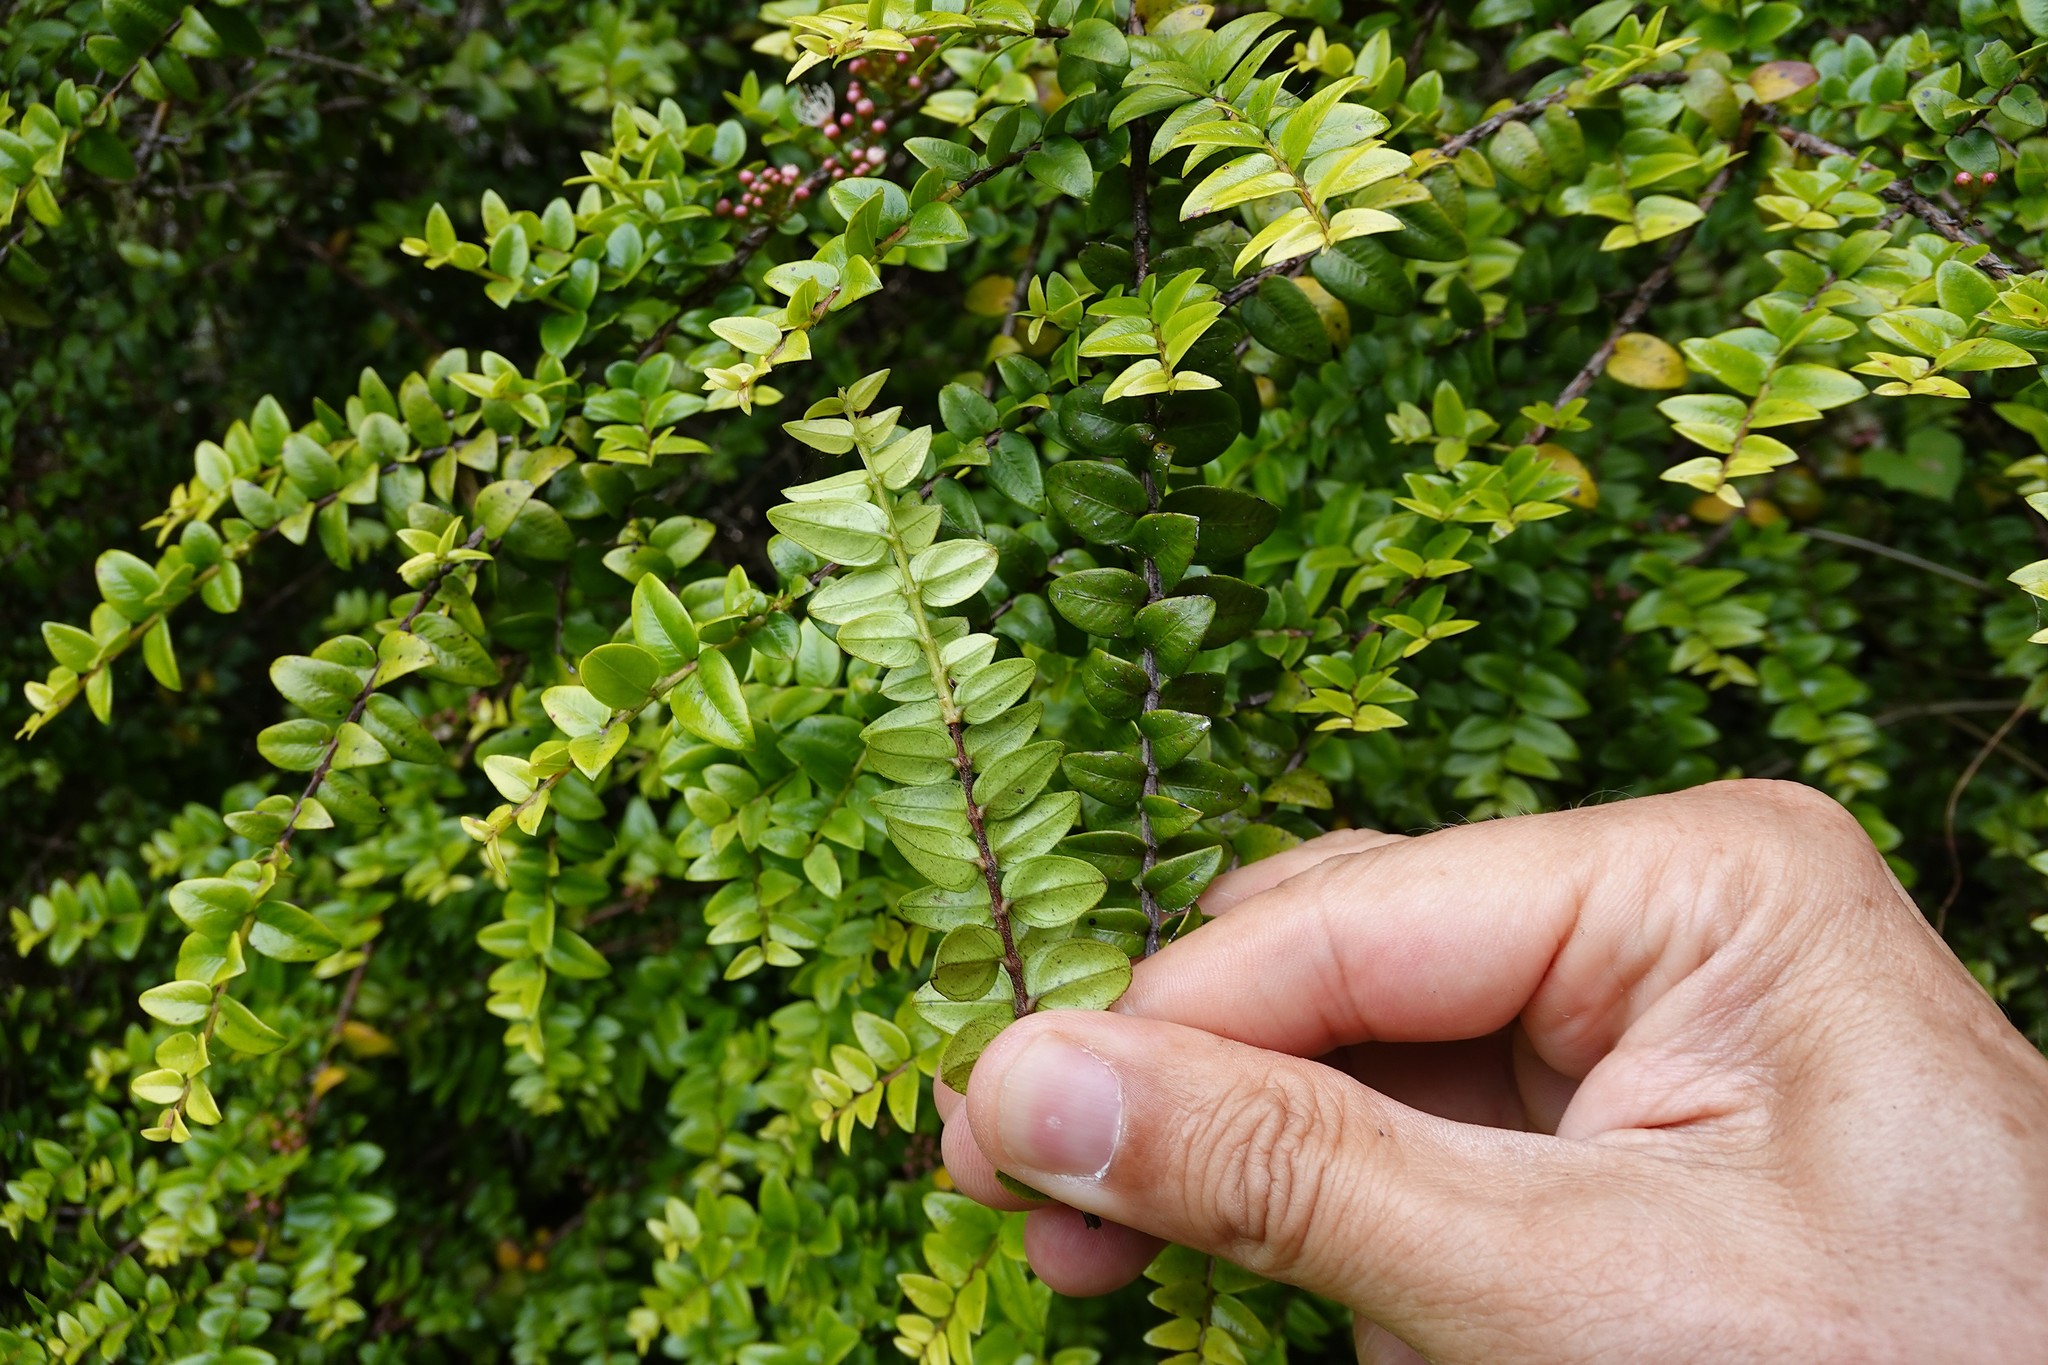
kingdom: Plantae
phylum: Tracheophyta
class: Magnoliopsida
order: Myrtales
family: Myrtaceae
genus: Metrosideros
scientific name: Metrosideros diffusa
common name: Small ratavine
